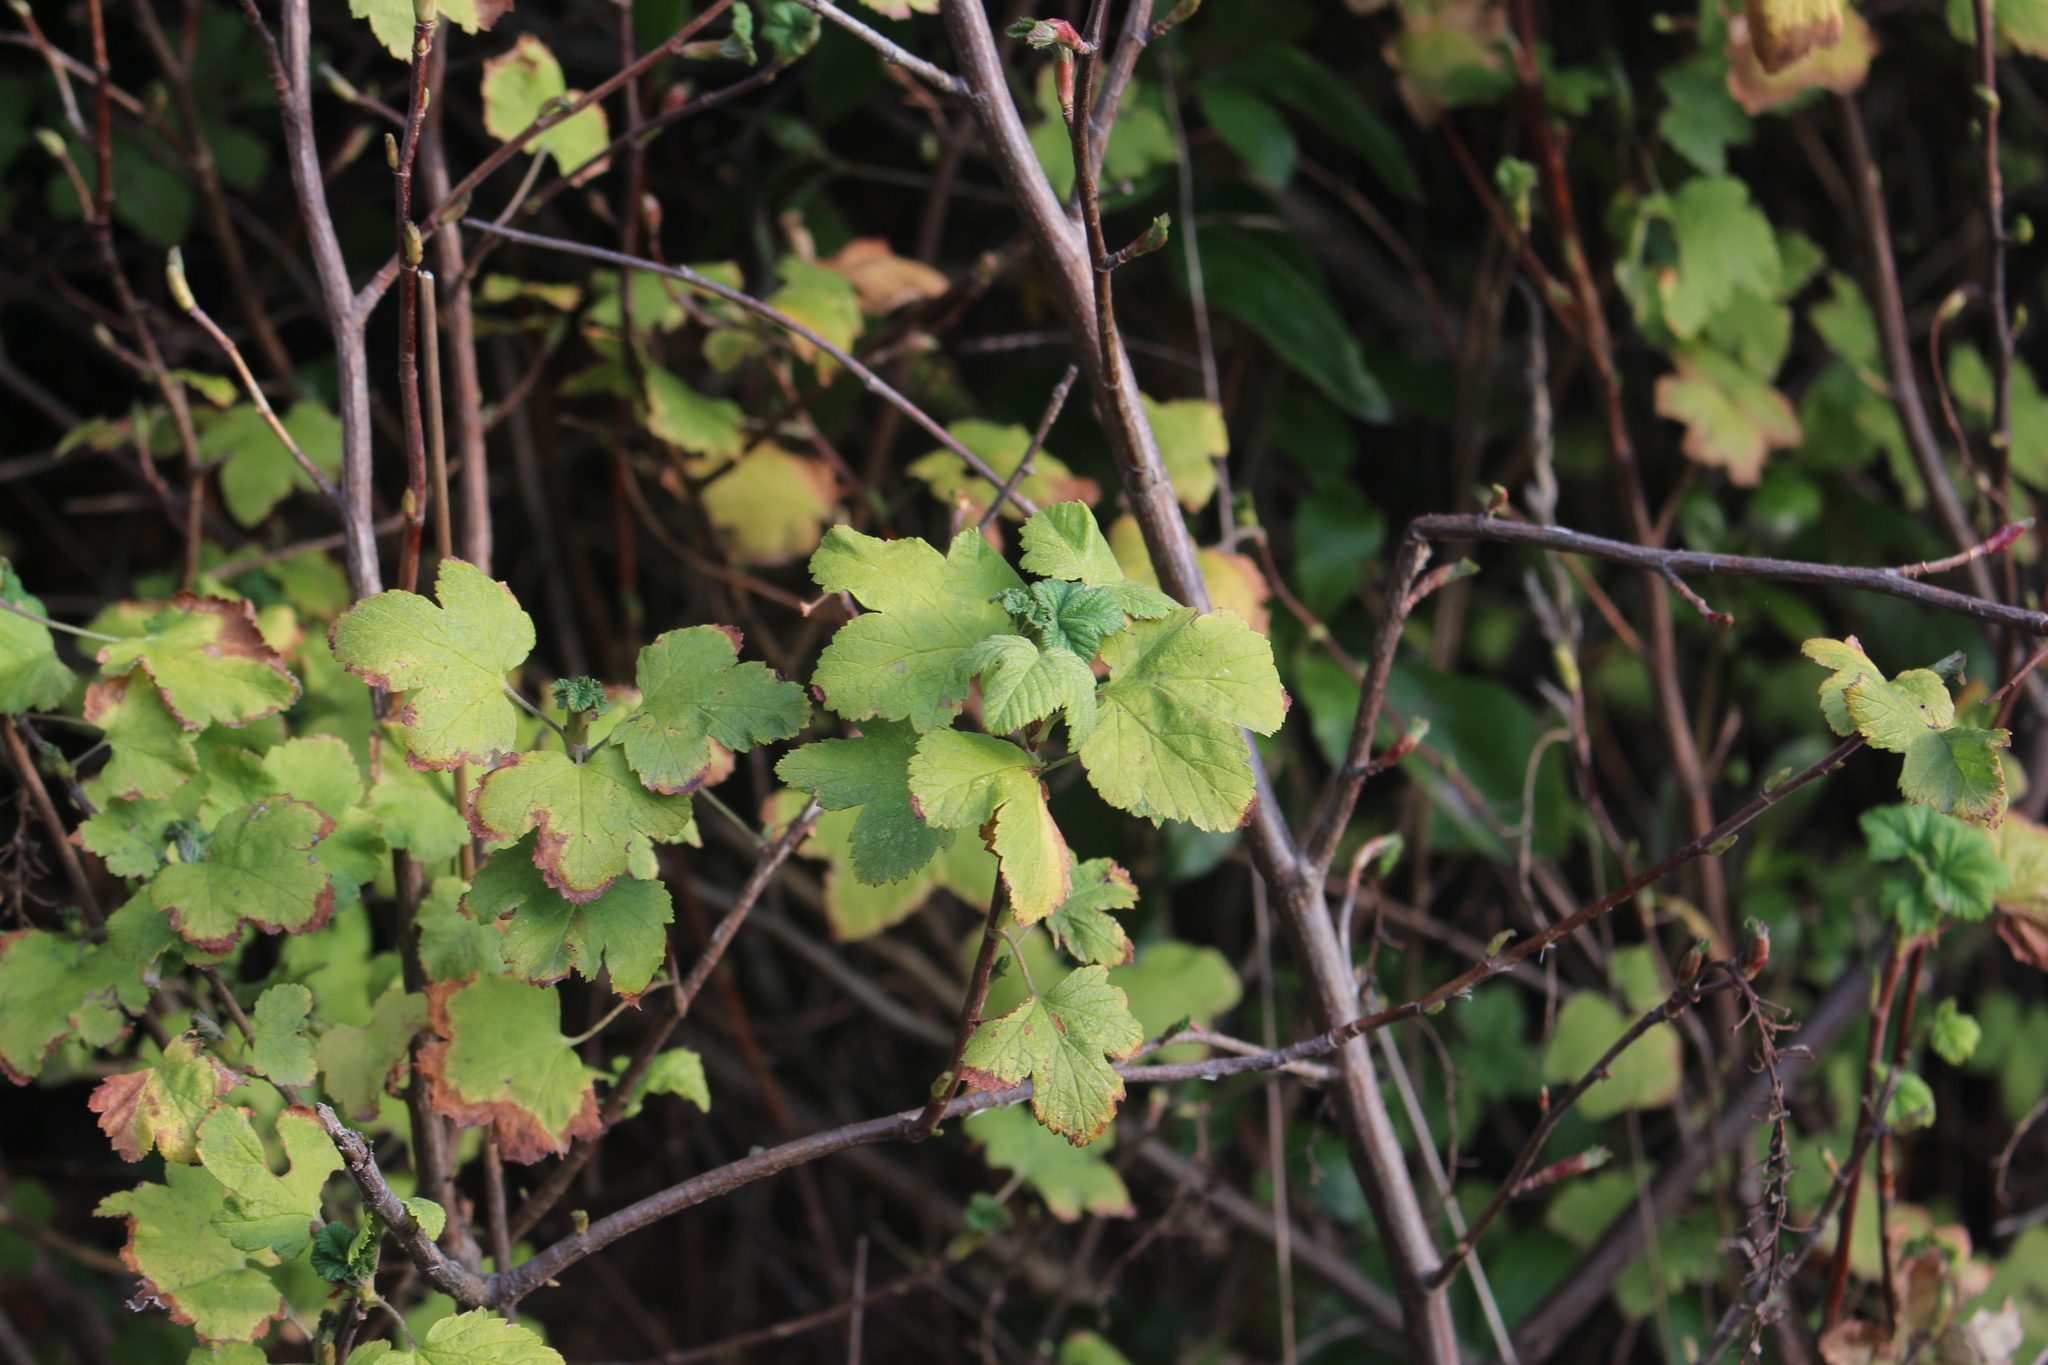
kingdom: Plantae
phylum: Tracheophyta
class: Magnoliopsida
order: Saxifragales
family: Grossulariaceae
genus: Ribes
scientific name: Ribes sanguineum
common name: Flowering currant
